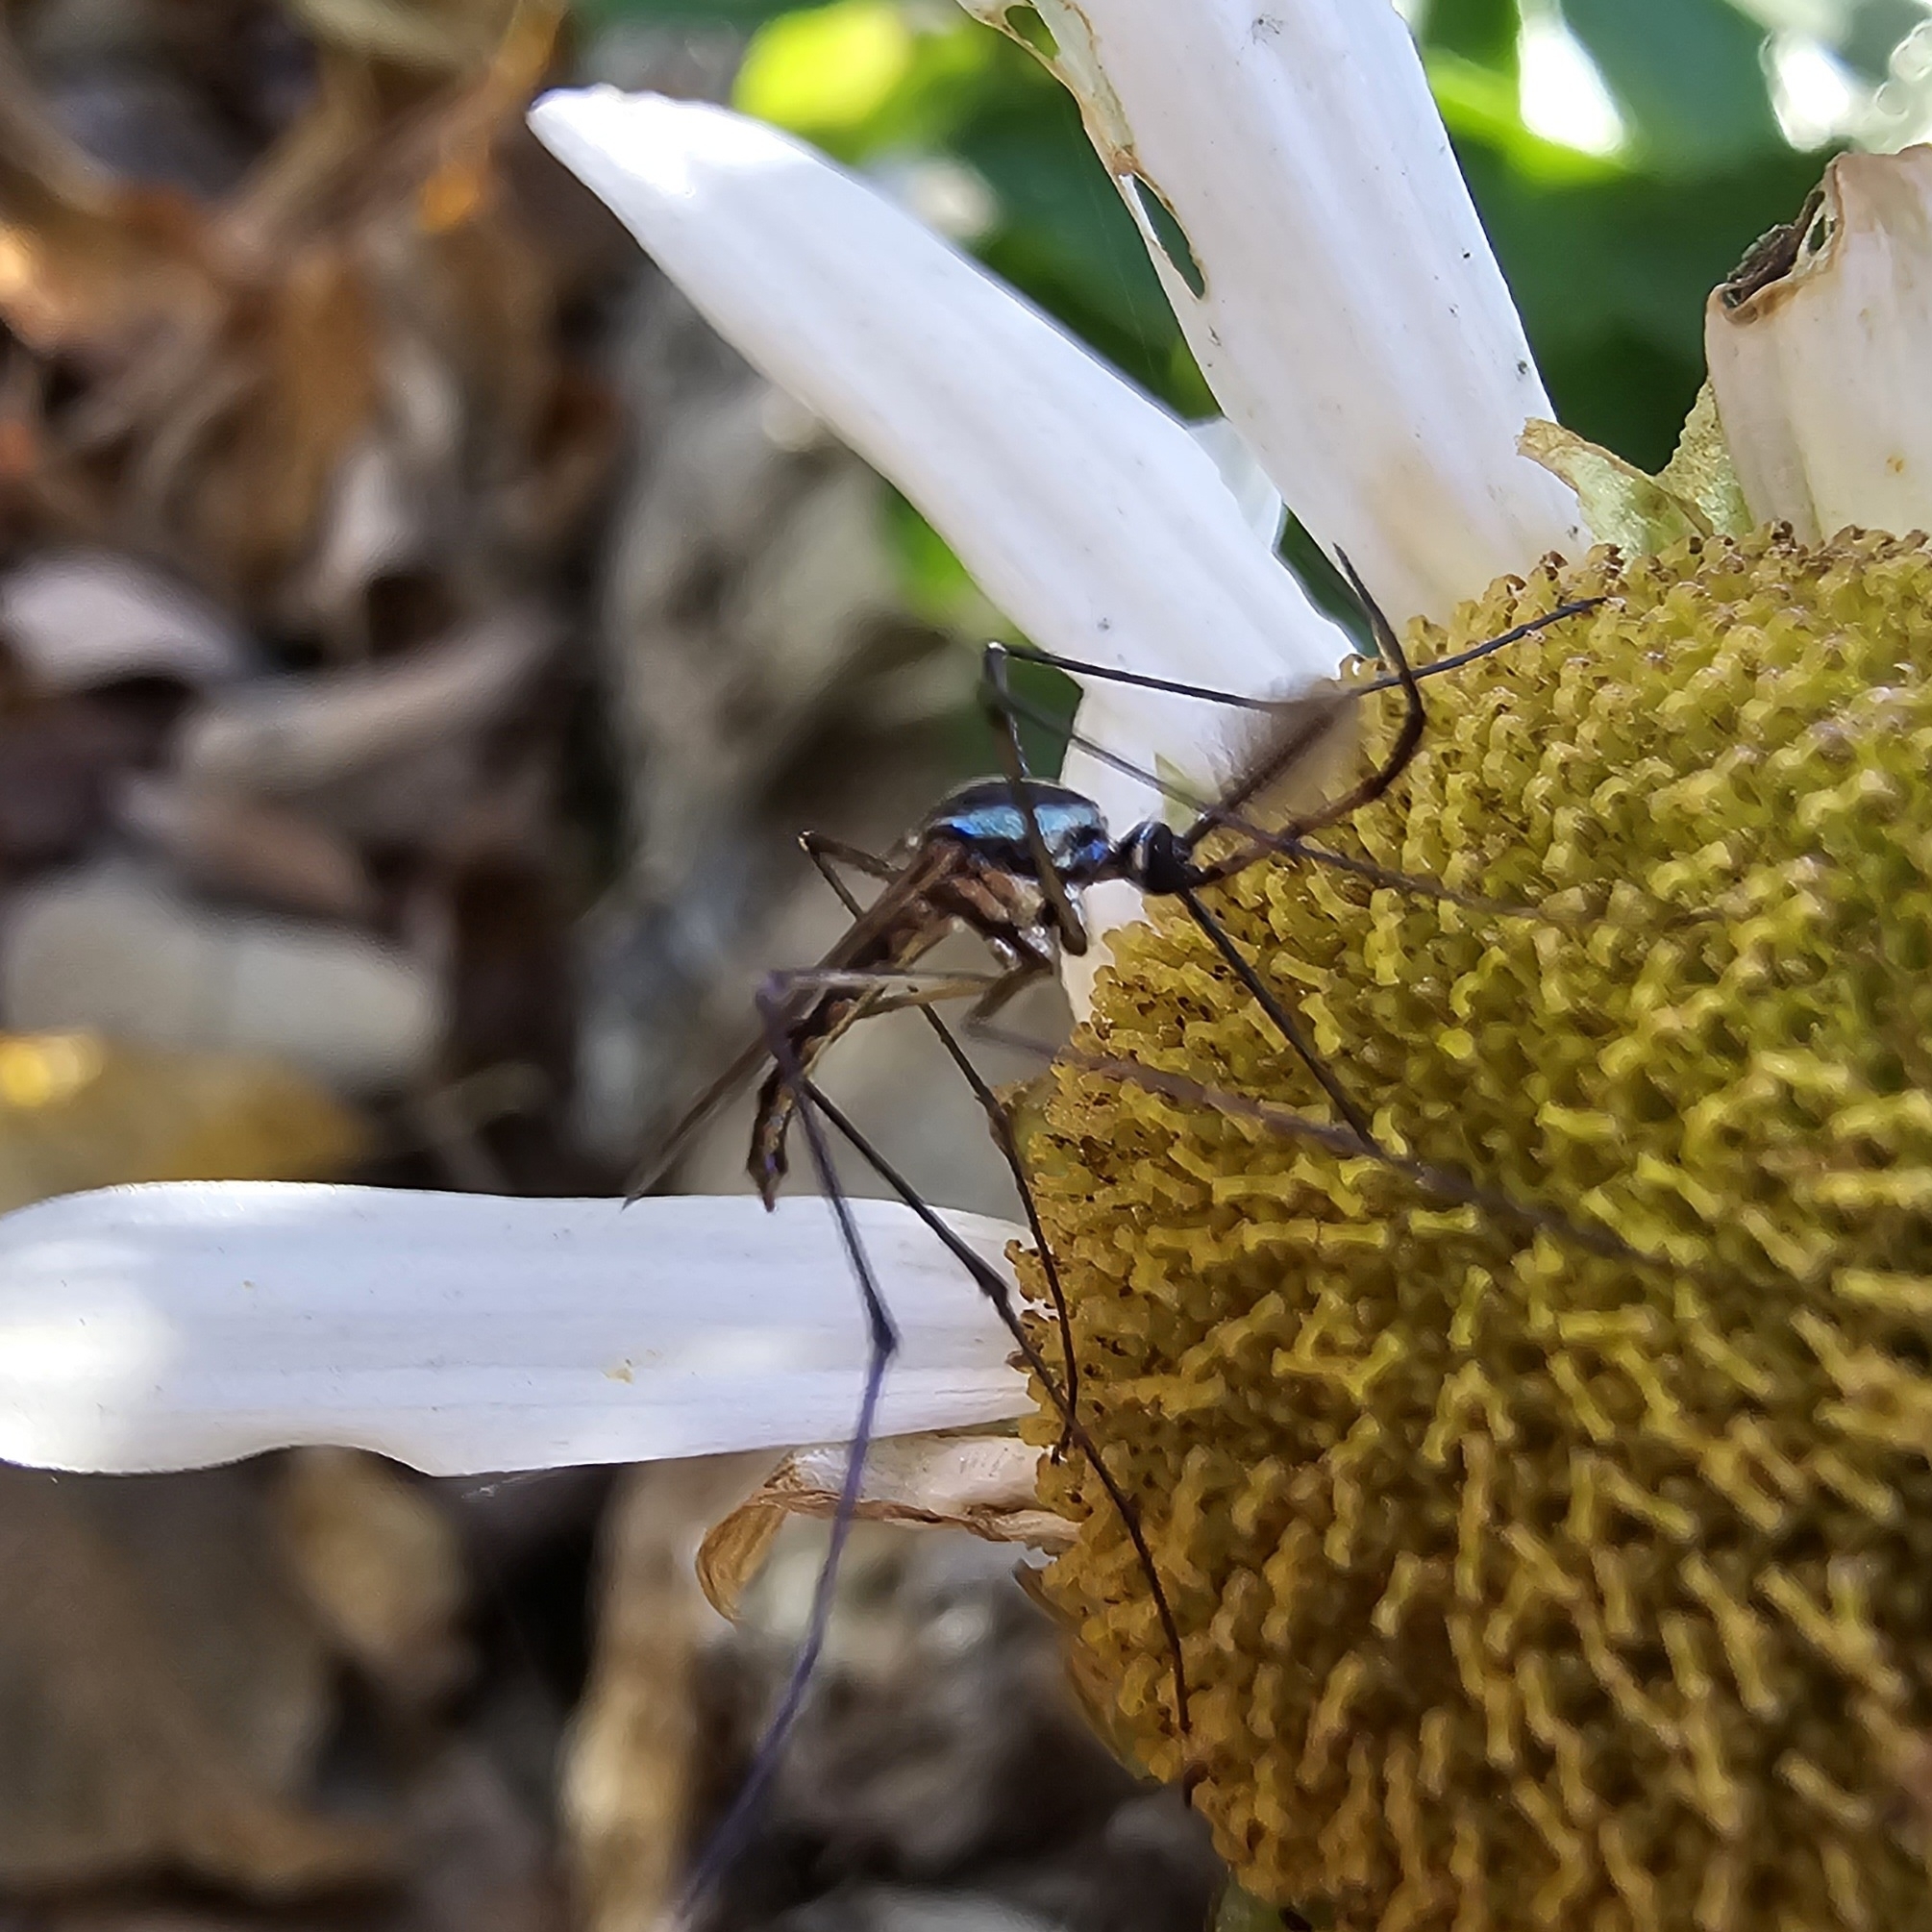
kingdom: Animalia
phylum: Arthropoda
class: Insecta
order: Diptera
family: Culicidae
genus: Toxorhynchites
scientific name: Toxorhynchites rutilus
